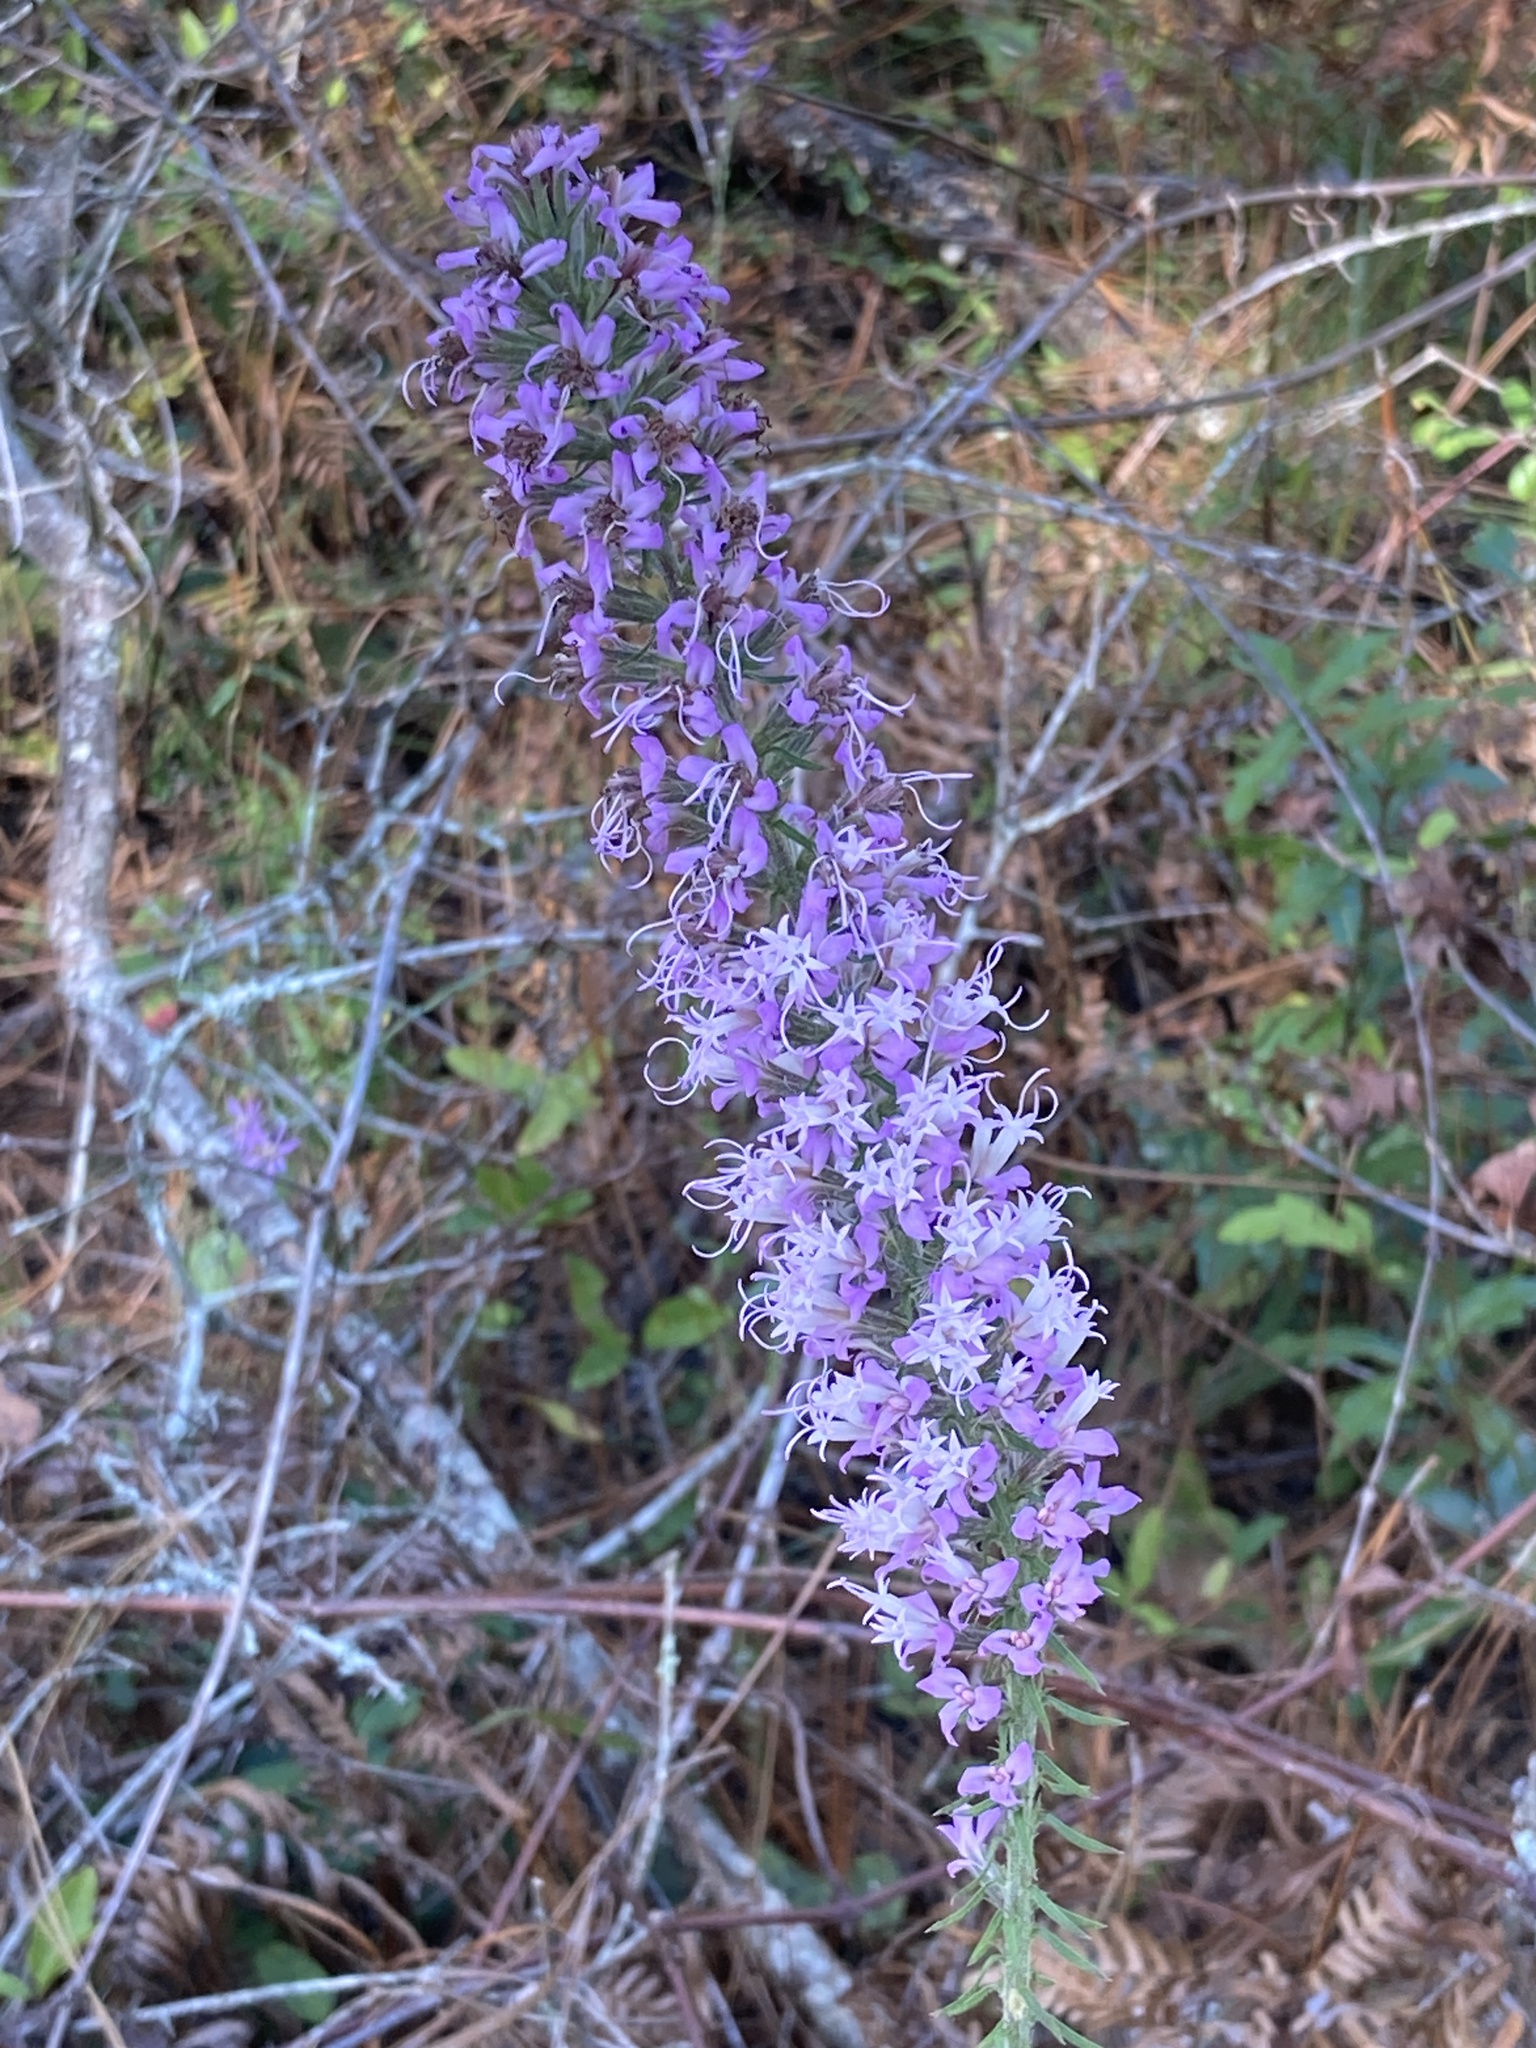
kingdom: Plantae
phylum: Tracheophyta
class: Magnoliopsida
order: Asterales
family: Asteraceae
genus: Liatris
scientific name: Liatris elegans
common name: Pinkscale gayfeather
